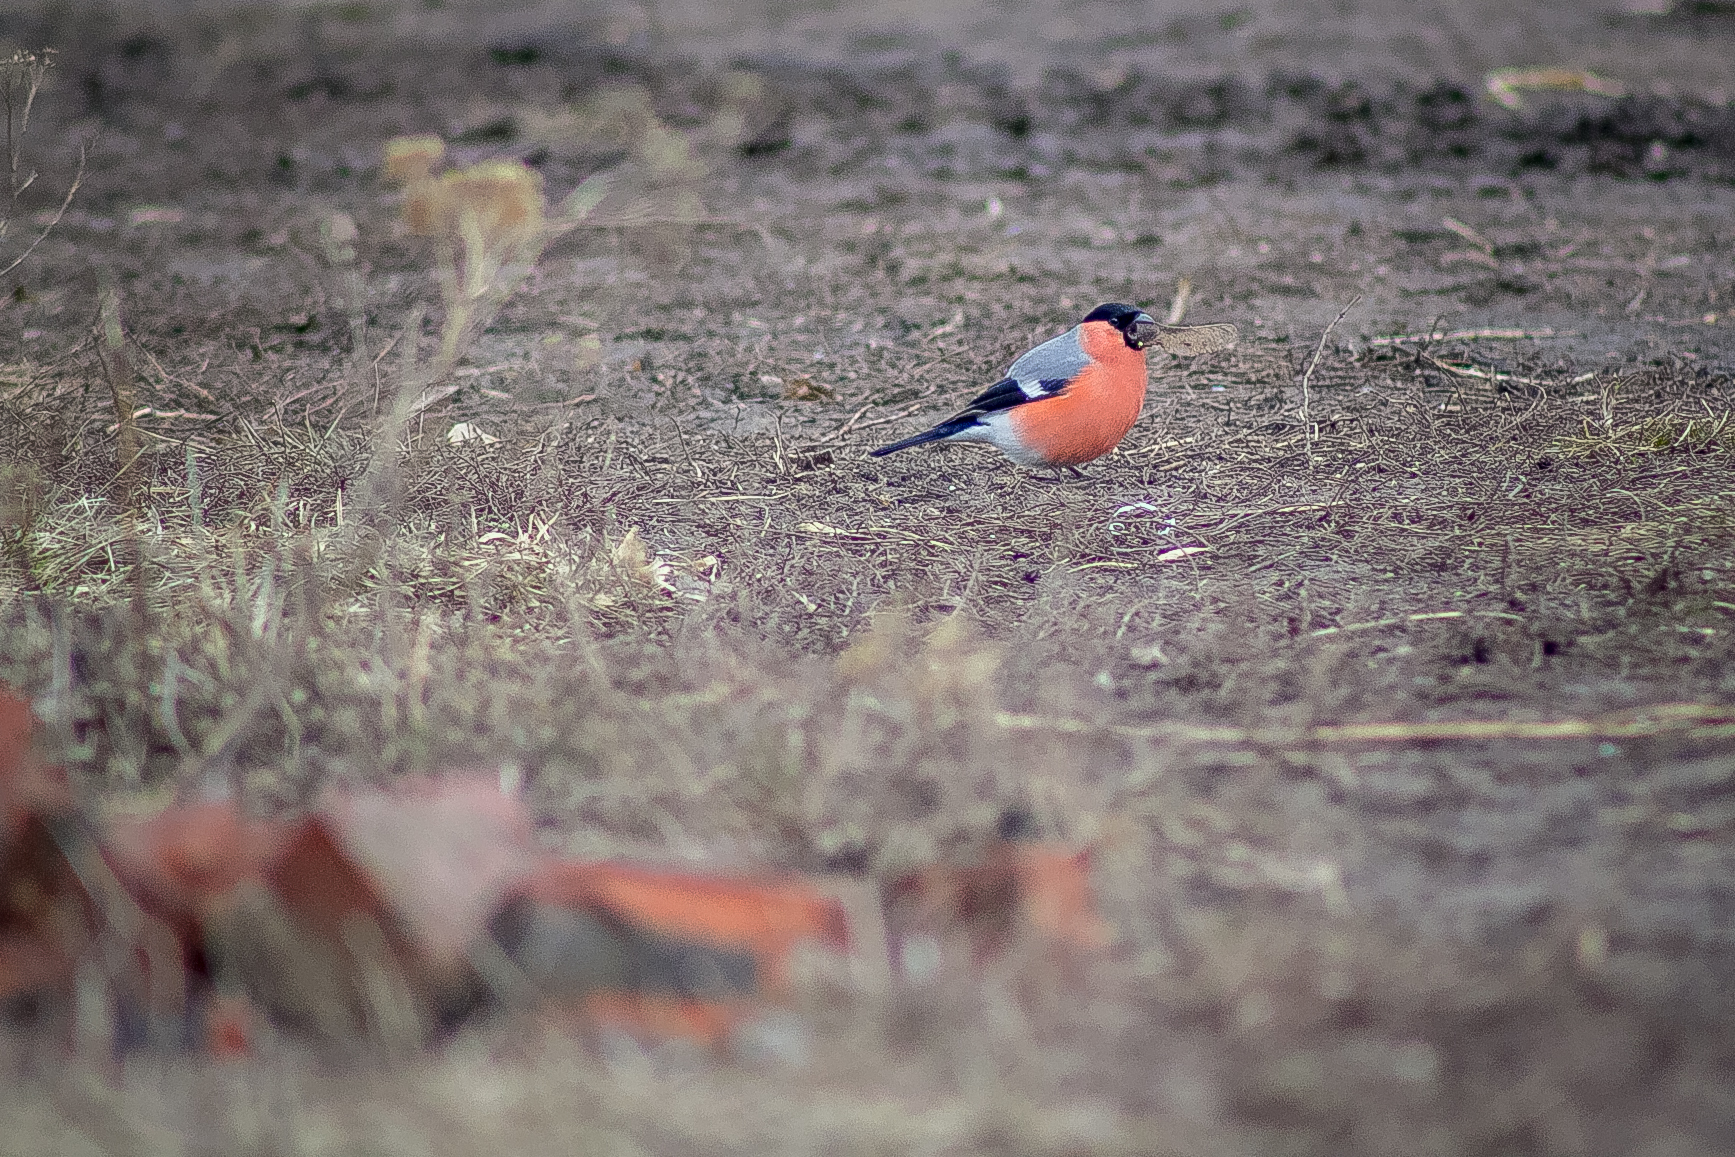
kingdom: Animalia
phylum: Chordata
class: Aves
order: Passeriformes
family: Fringillidae
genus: Pyrrhula
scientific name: Pyrrhula pyrrhula
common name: Eurasian bullfinch
